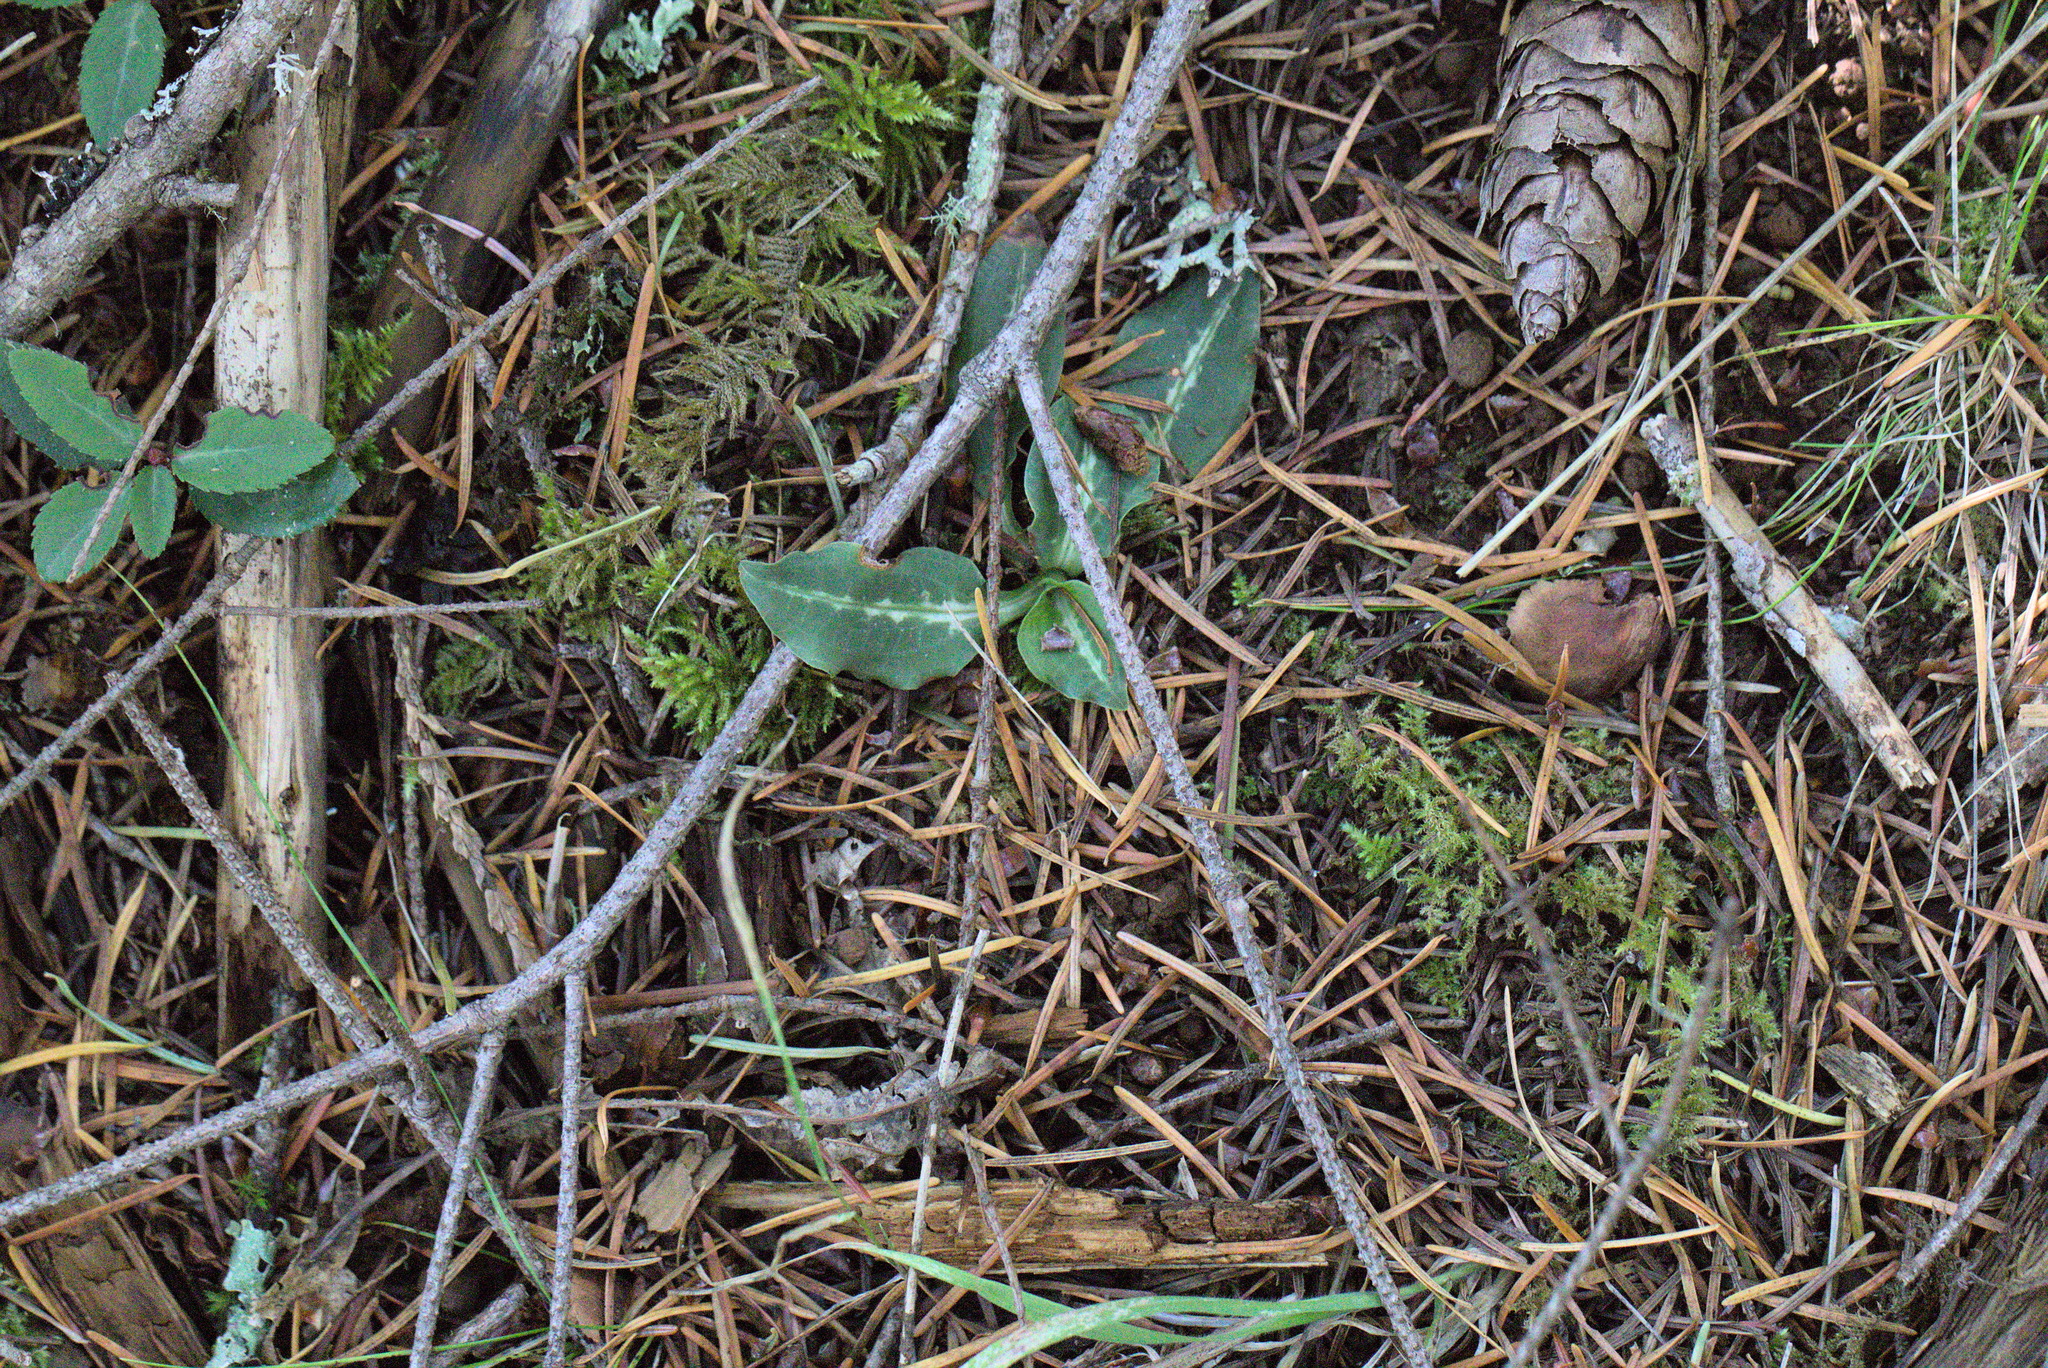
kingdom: Plantae
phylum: Tracheophyta
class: Liliopsida
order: Asparagales
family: Orchidaceae
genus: Goodyera
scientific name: Goodyera oblongifolia
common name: Giant rattlesnake-plantain
